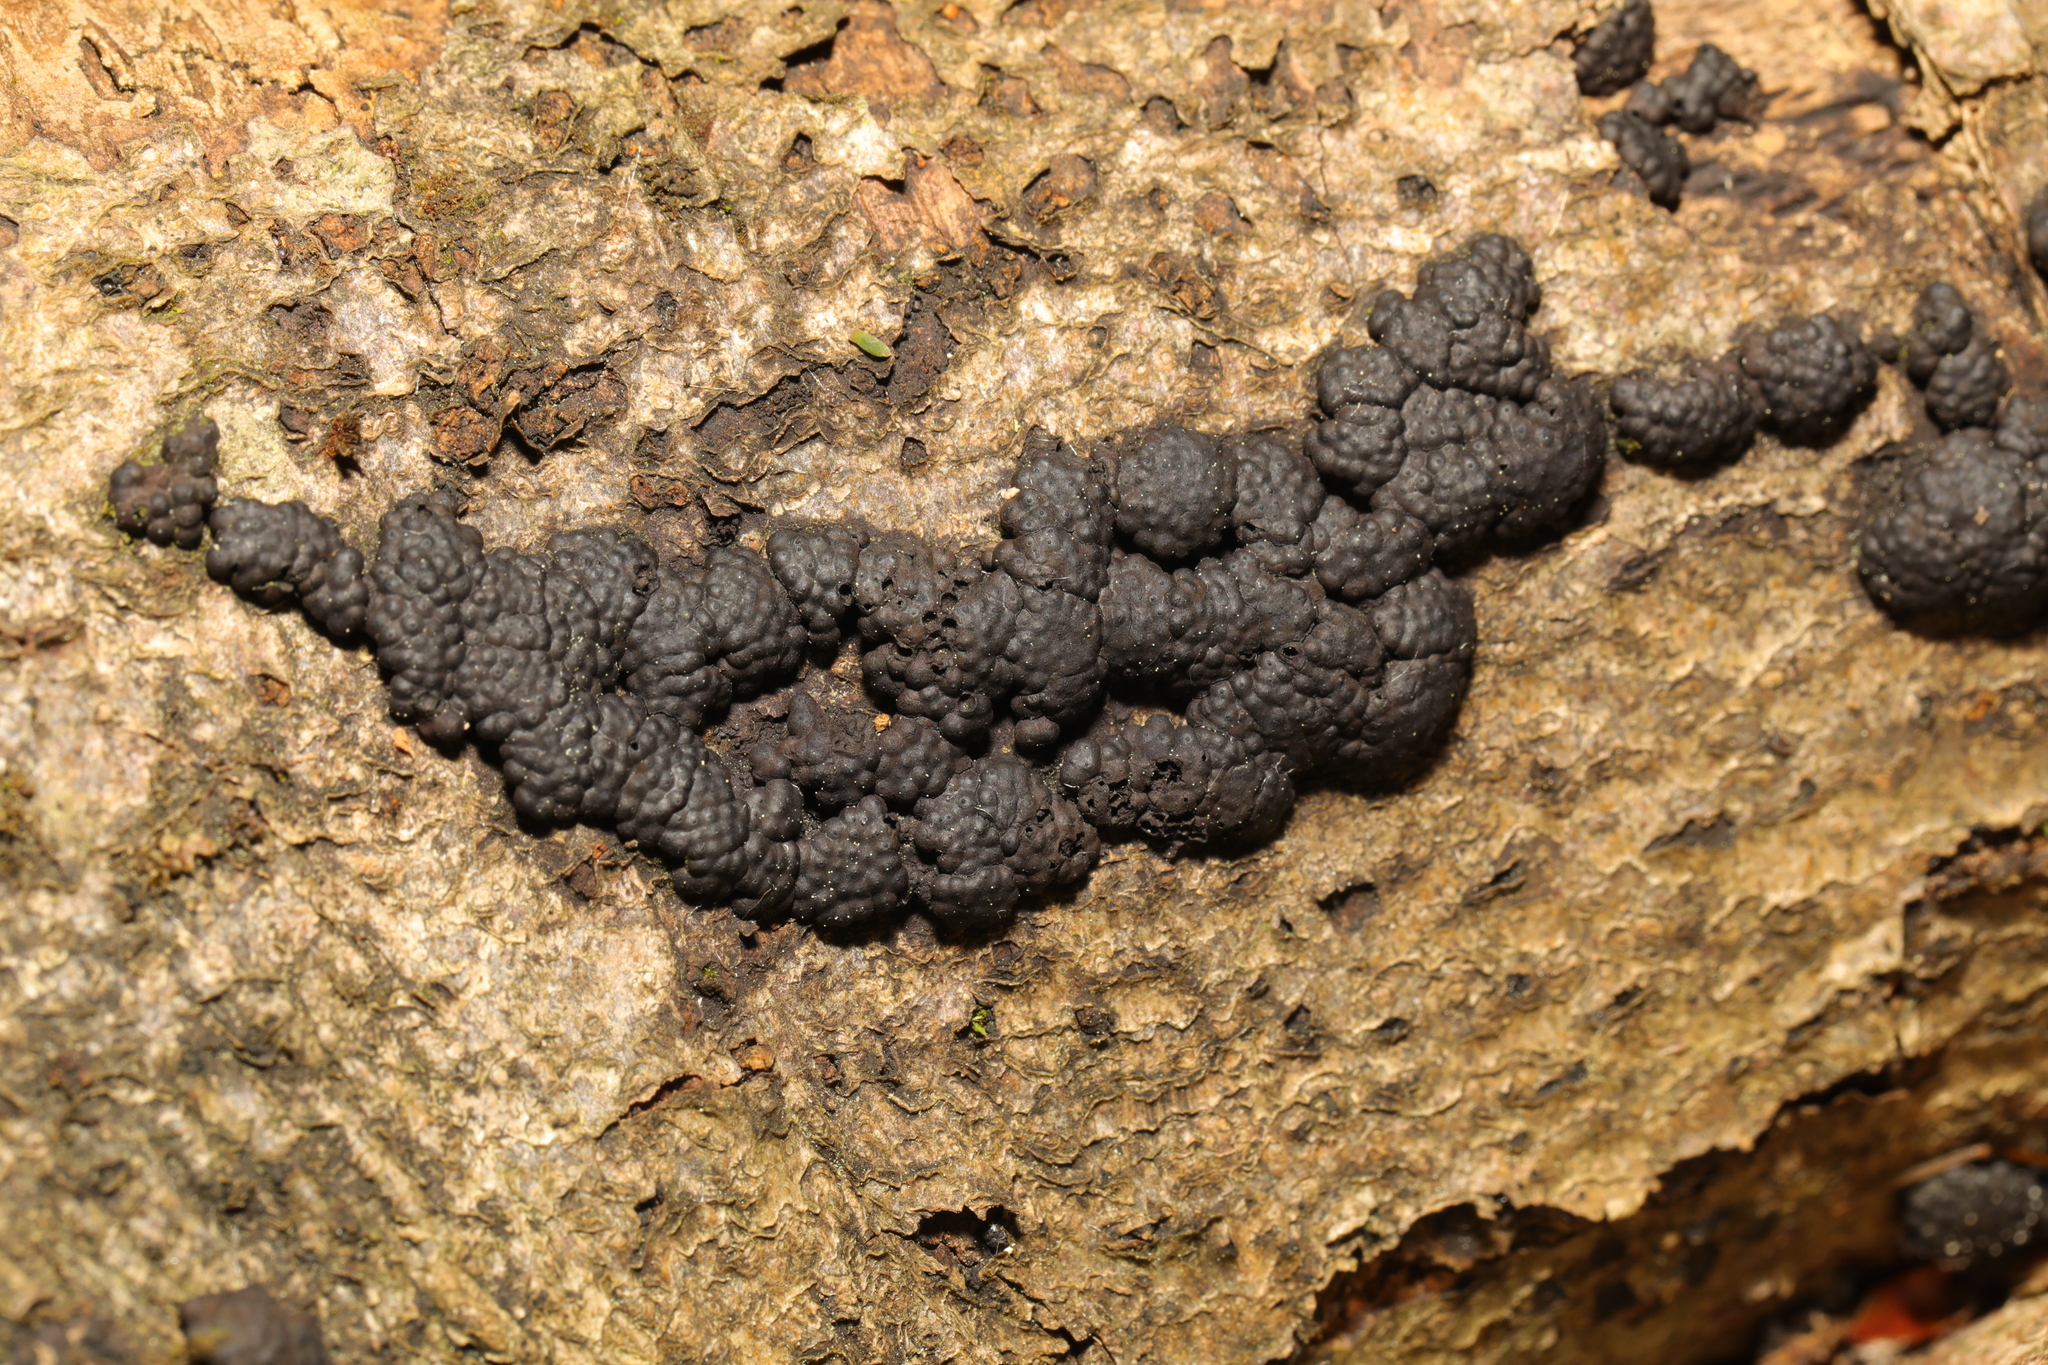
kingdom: Fungi
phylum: Ascomycota
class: Sordariomycetes
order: Xylariales
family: Hypoxylaceae
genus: Jackrogersella
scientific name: Jackrogersella multiformis
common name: Birch woodwart
